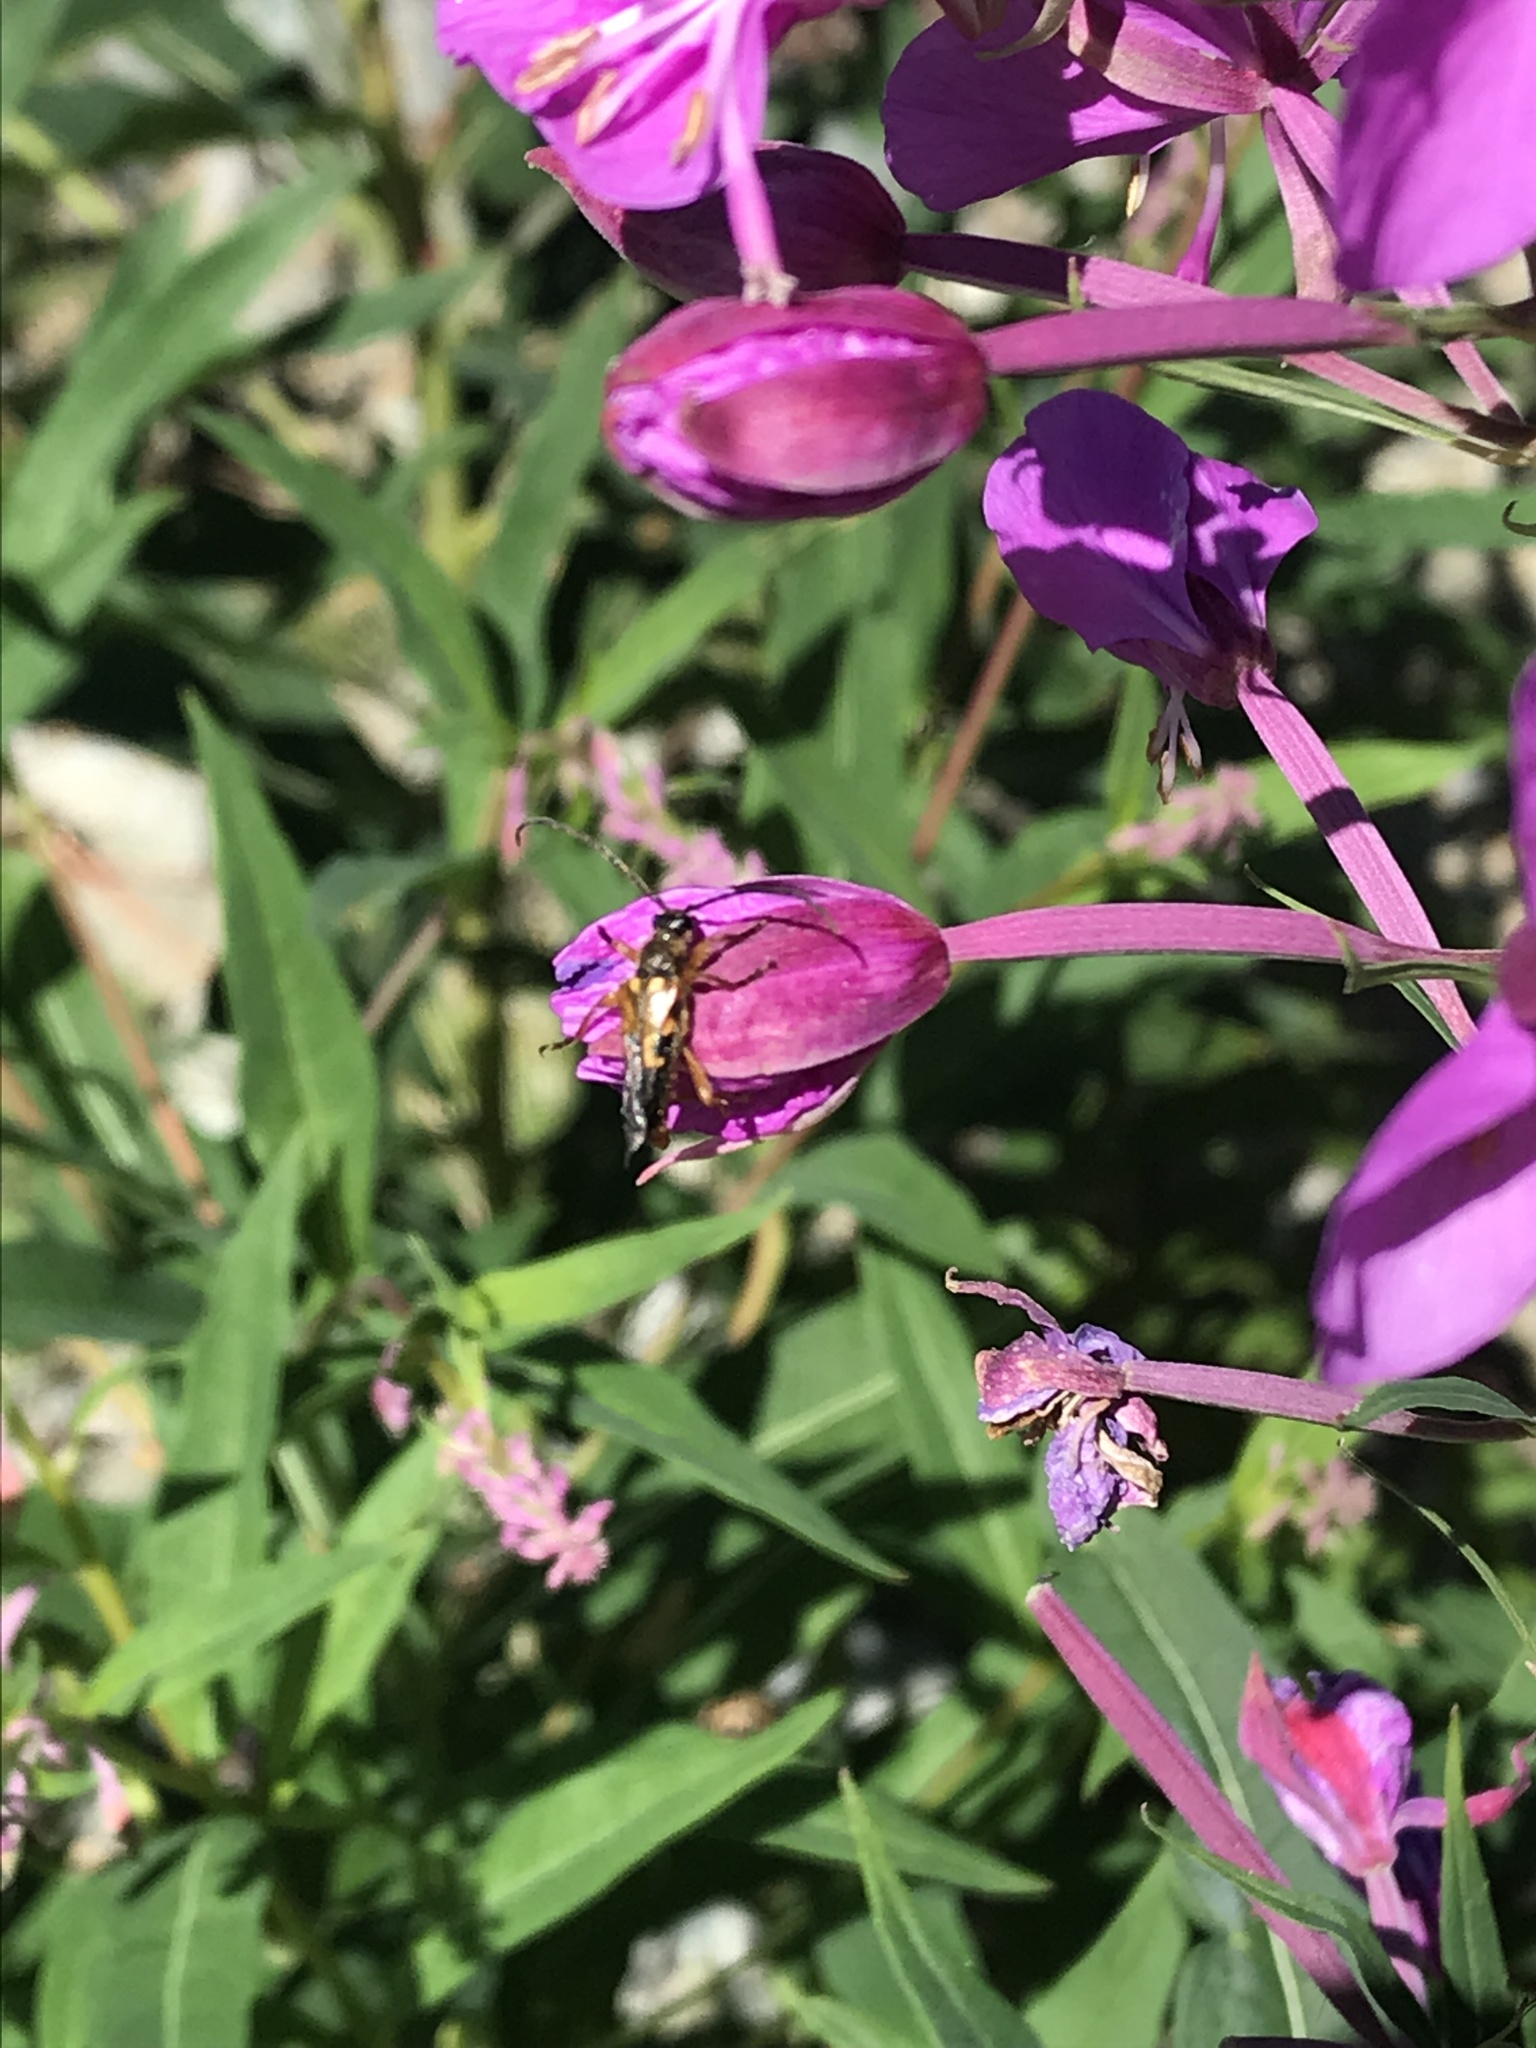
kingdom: Animalia
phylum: Arthropoda
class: Insecta
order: Coleoptera
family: Cerambycidae
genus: Xestoleptura
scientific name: Xestoleptura crassipes
